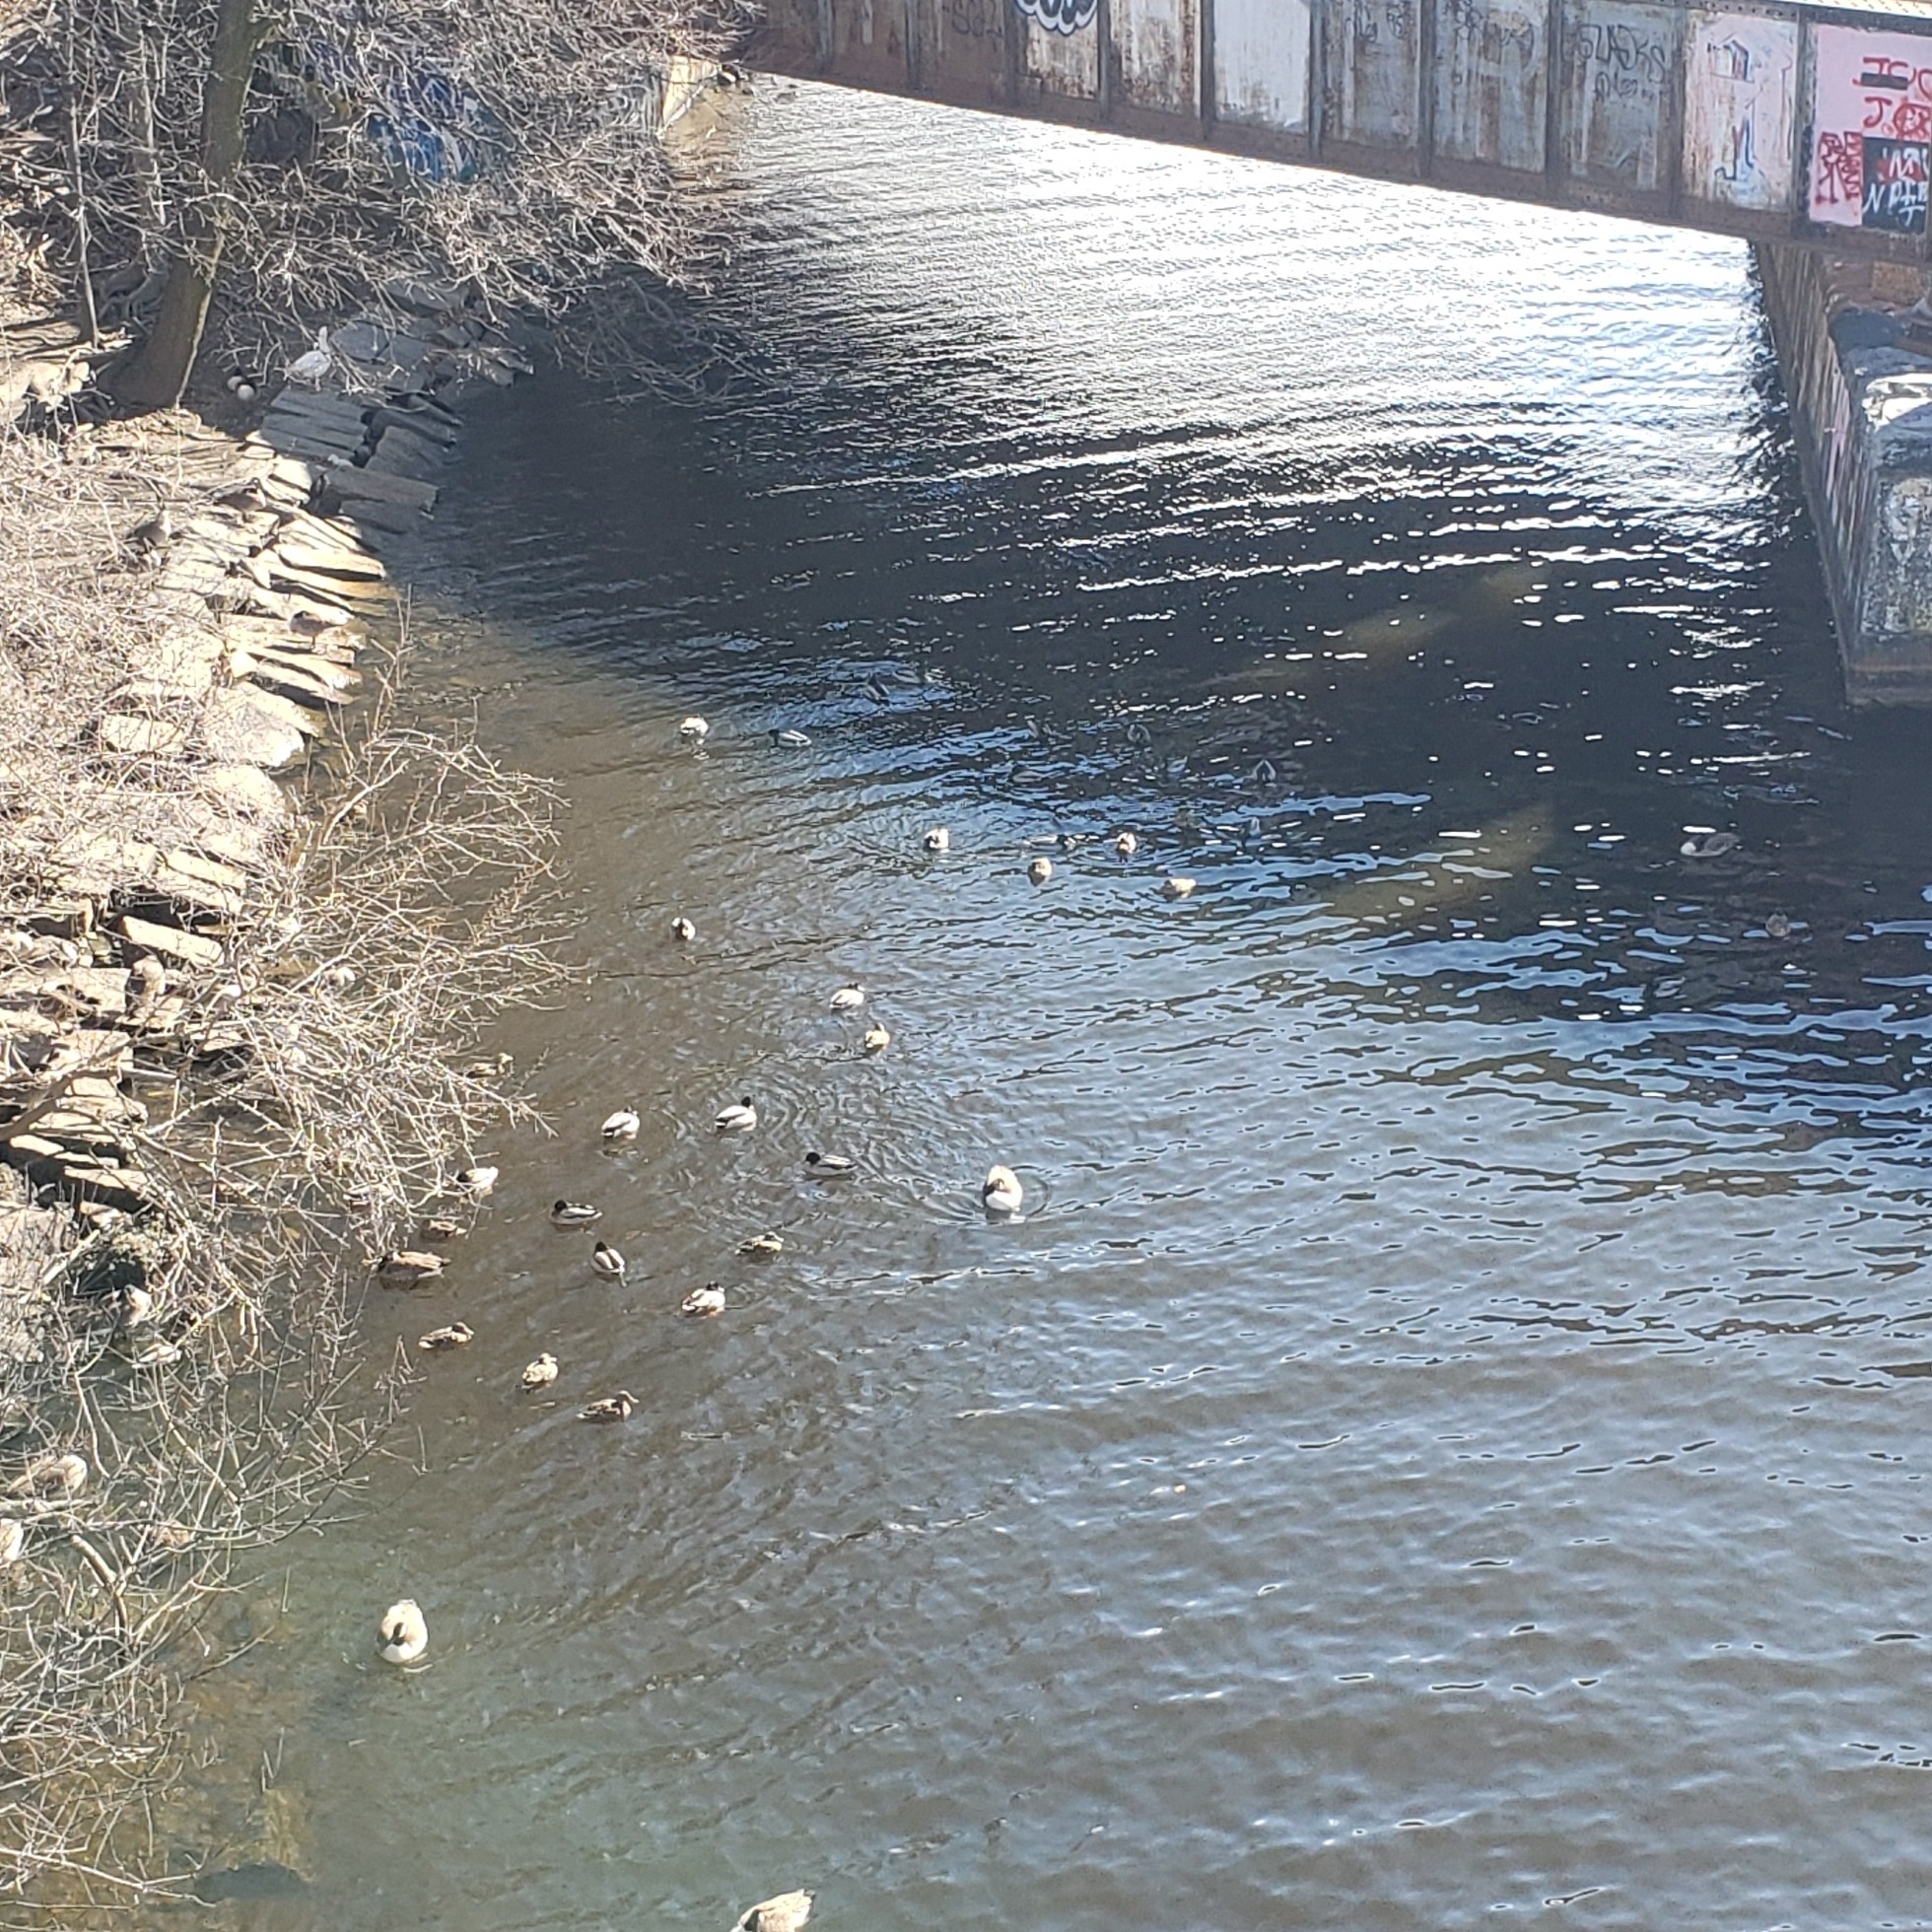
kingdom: Animalia
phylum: Chordata
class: Aves
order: Anseriformes
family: Anatidae
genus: Anas
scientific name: Anas platyrhynchos
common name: Mallard
